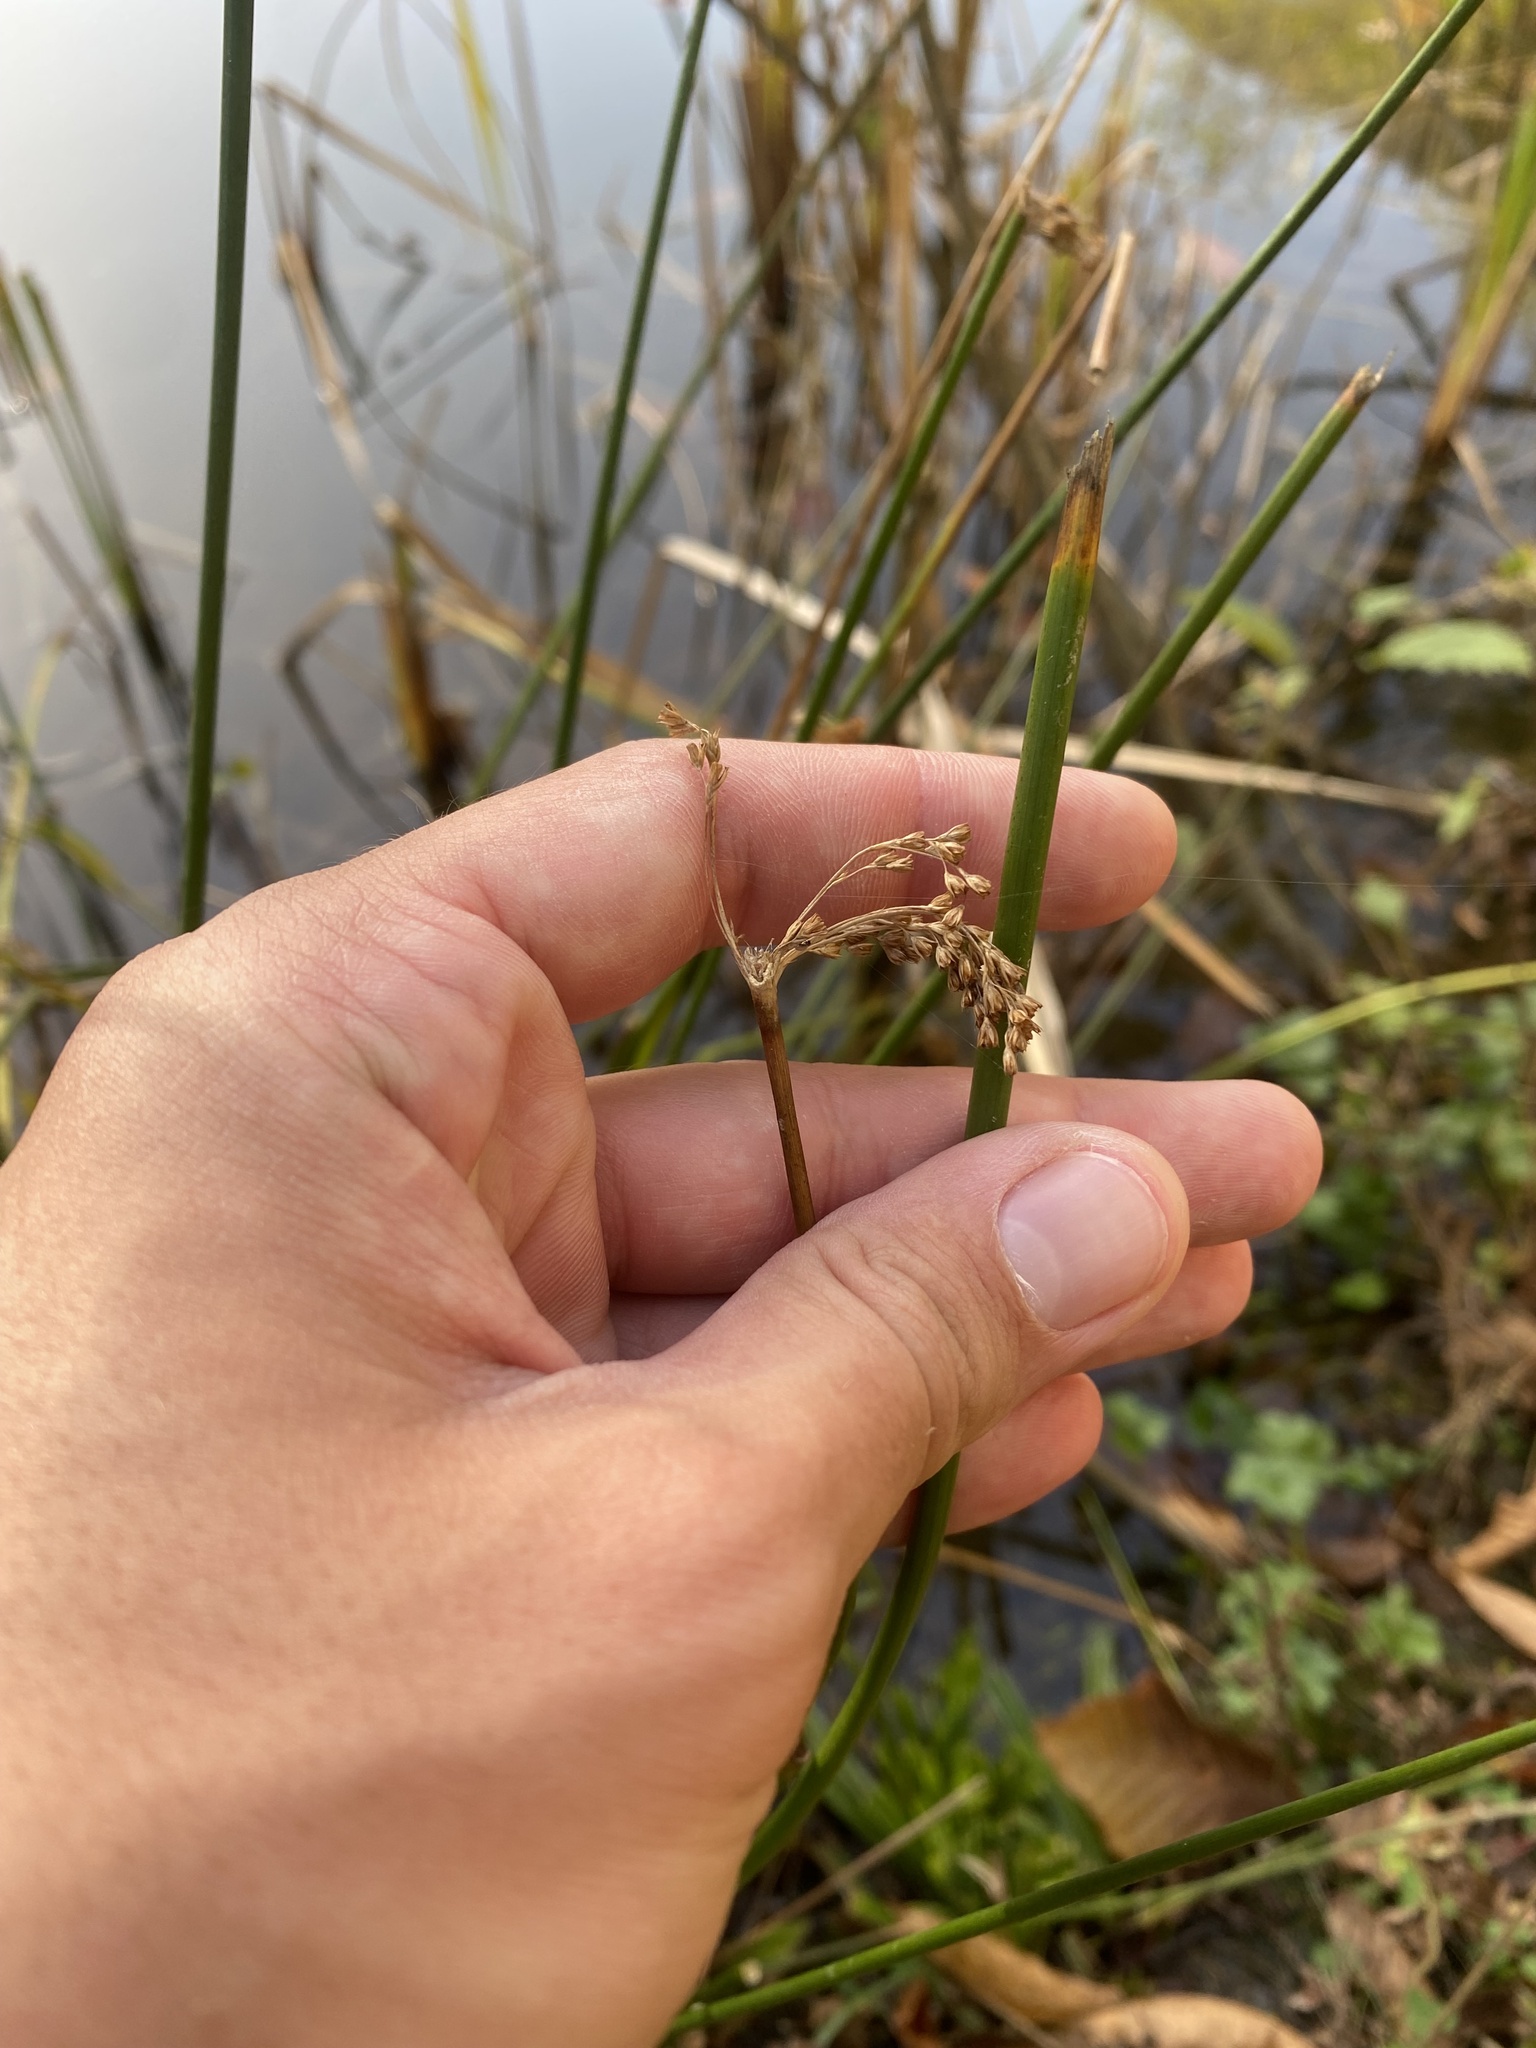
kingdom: Plantae
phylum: Tracheophyta
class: Liliopsida
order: Poales
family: Juncaceae
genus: Juncus
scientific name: Juncus effusus
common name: Soft rush
